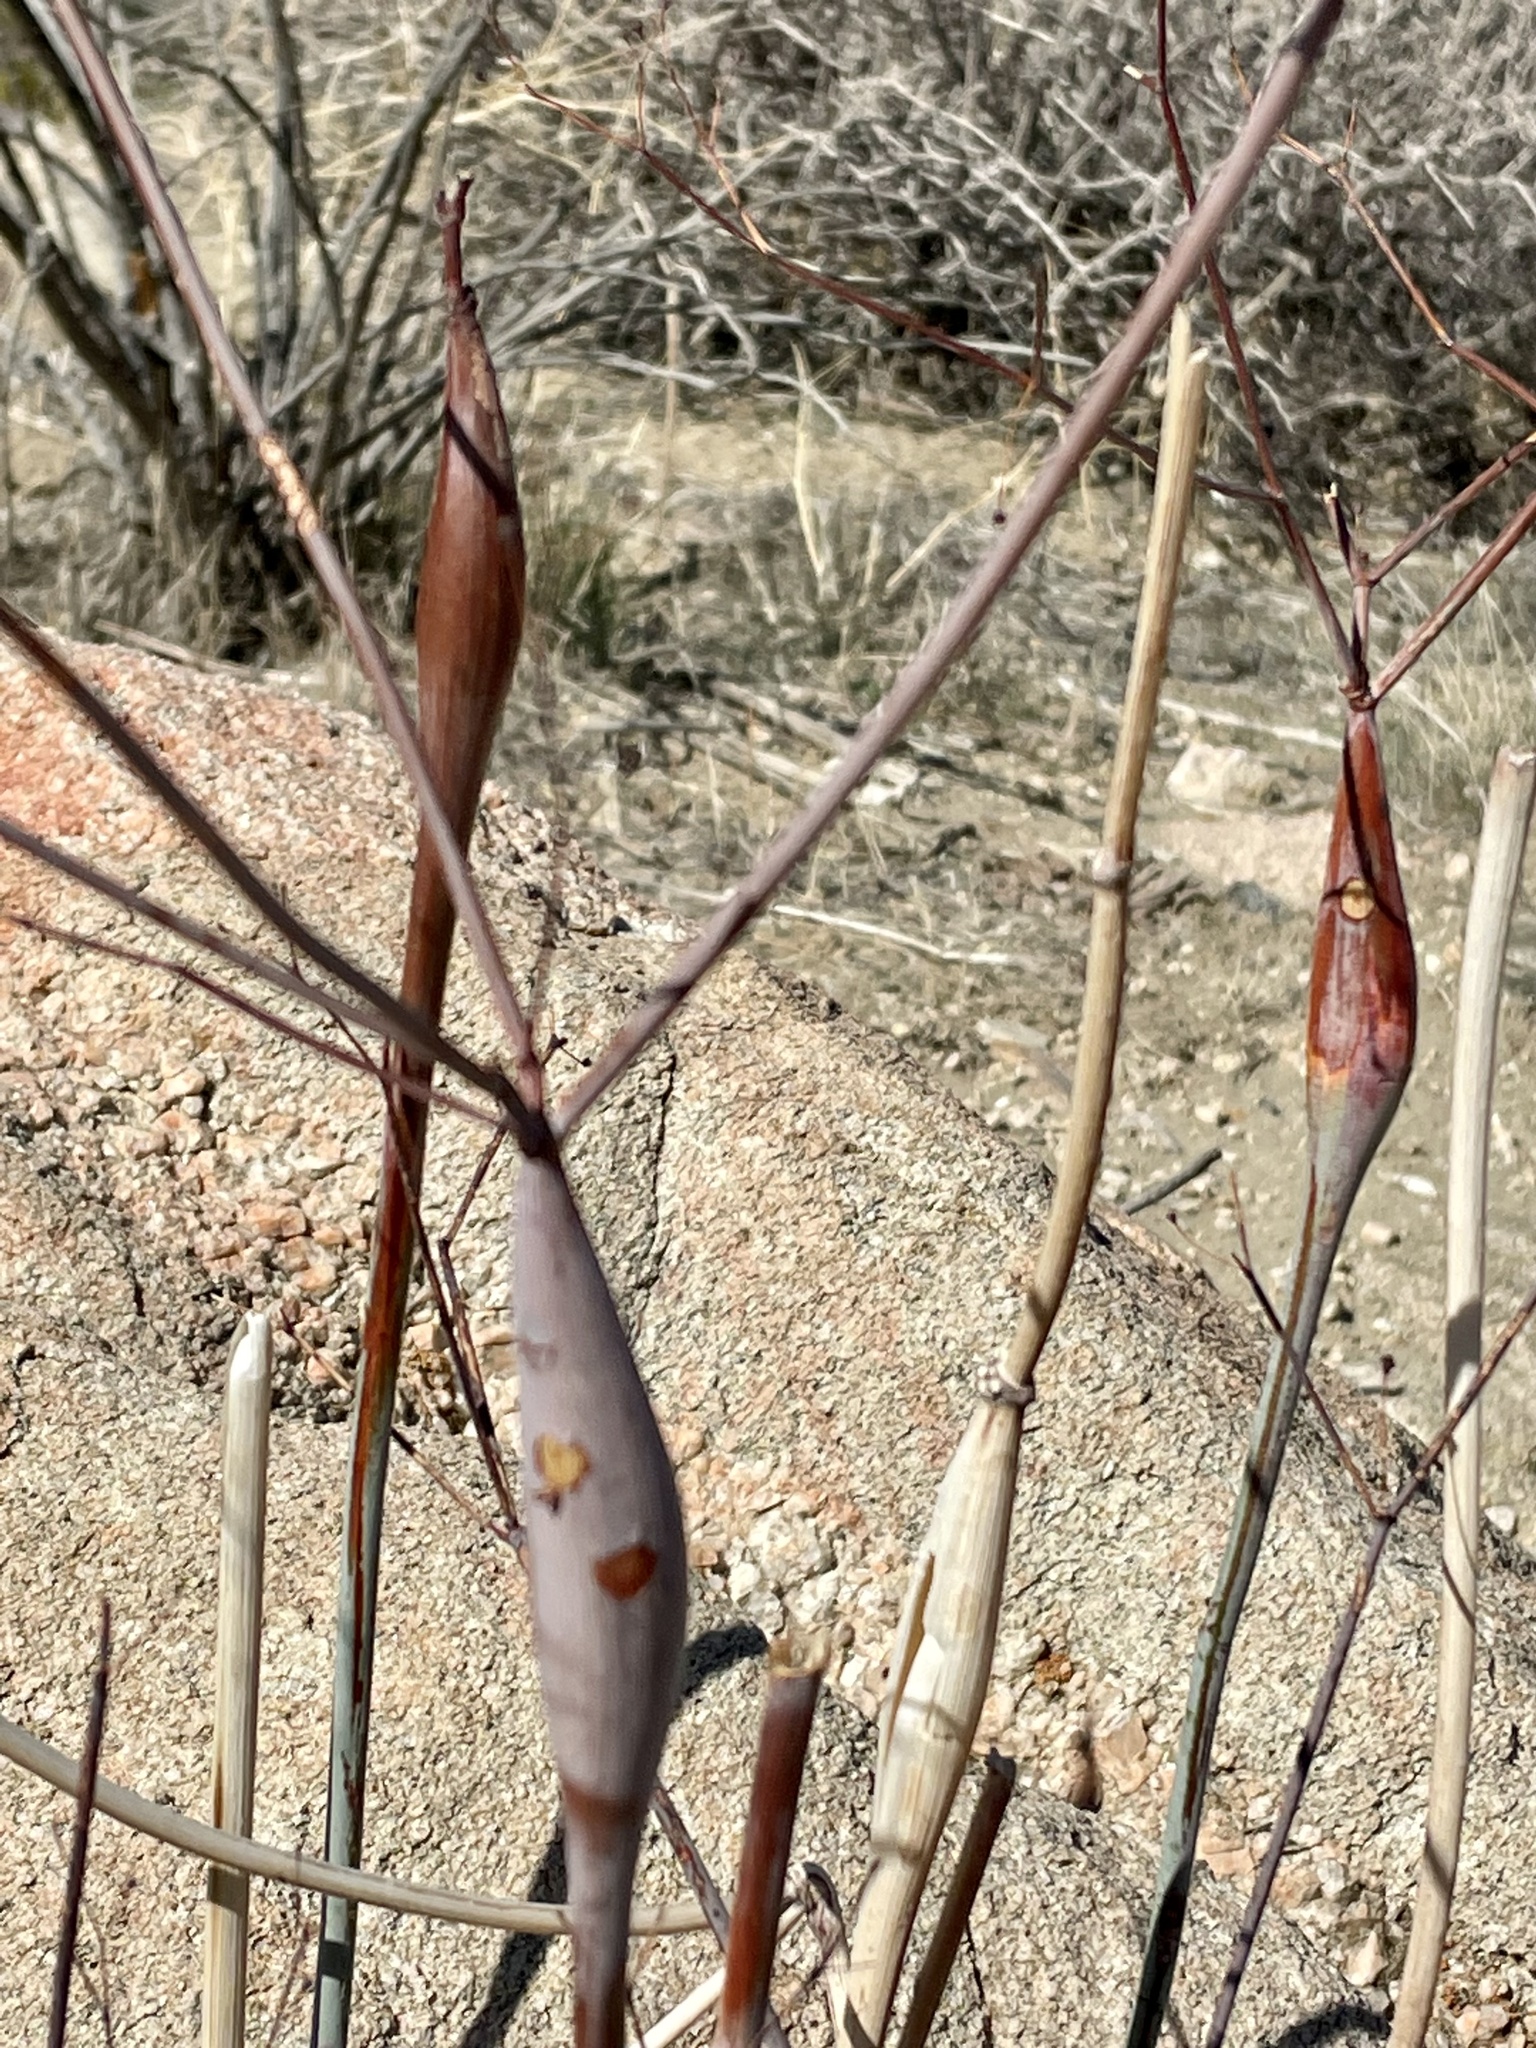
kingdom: Plantae
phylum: Tracheophyta
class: Magnoliopsida
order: Caryophyllales
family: Polygonaceae
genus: Eriogonum
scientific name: Eriogonum inflatum
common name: Desert trumpet
